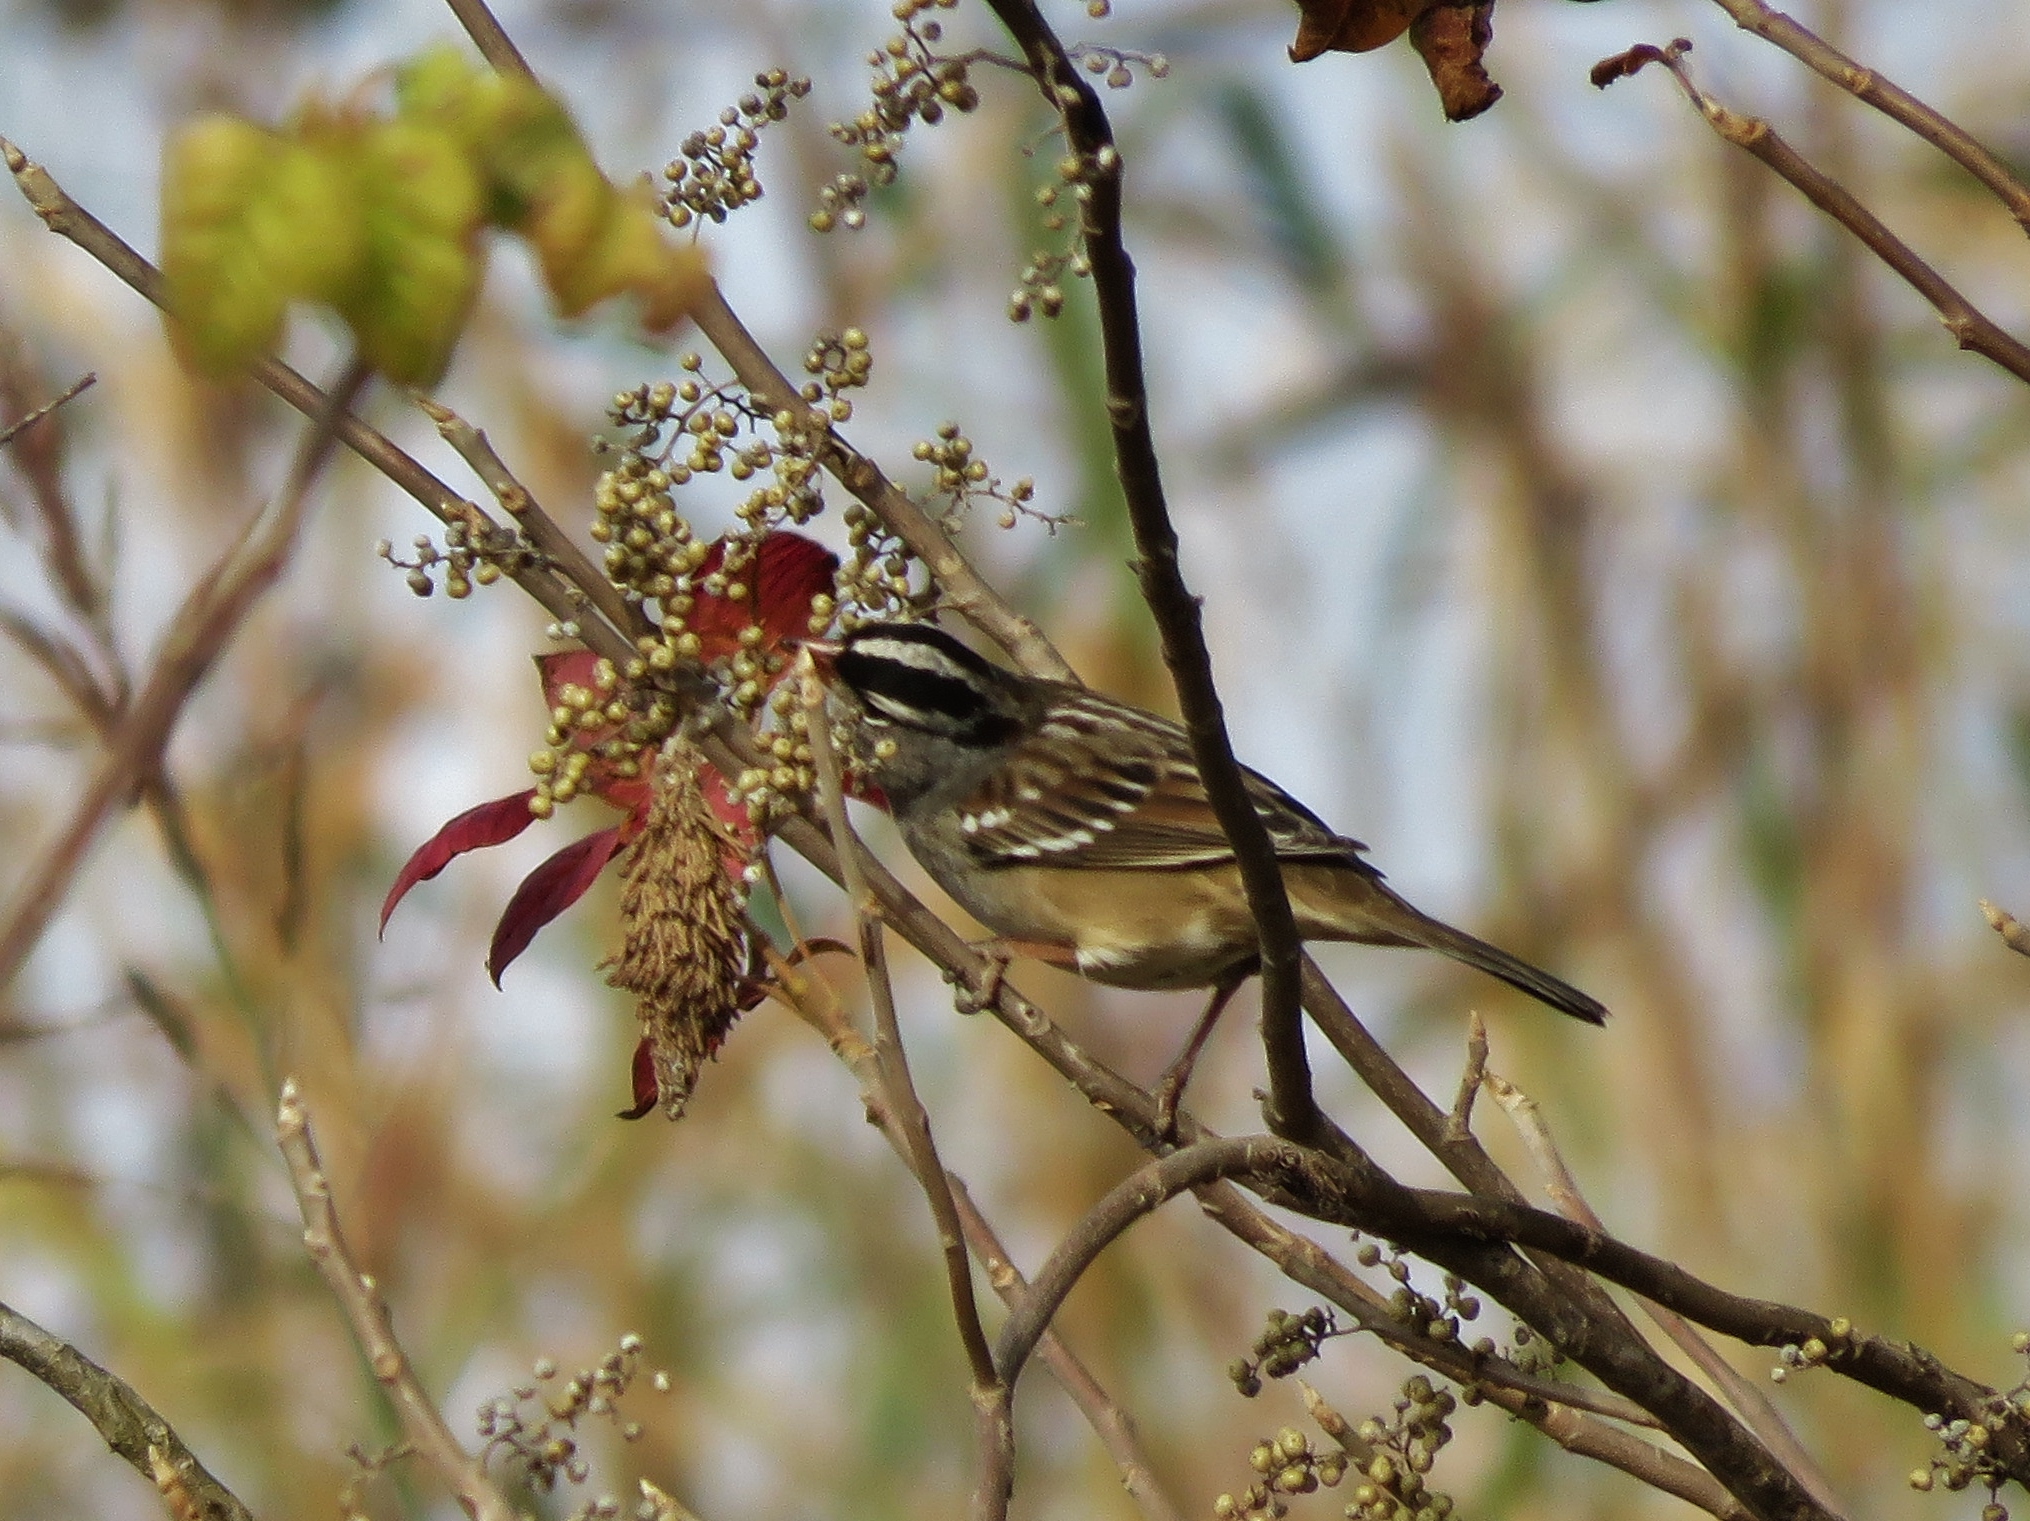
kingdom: Animalia
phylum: Chordata
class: Aves
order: Passeriformes
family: Passerellidae
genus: Zonotrichia
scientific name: Zonotrichia leucophrys
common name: White-crowned sparrow
